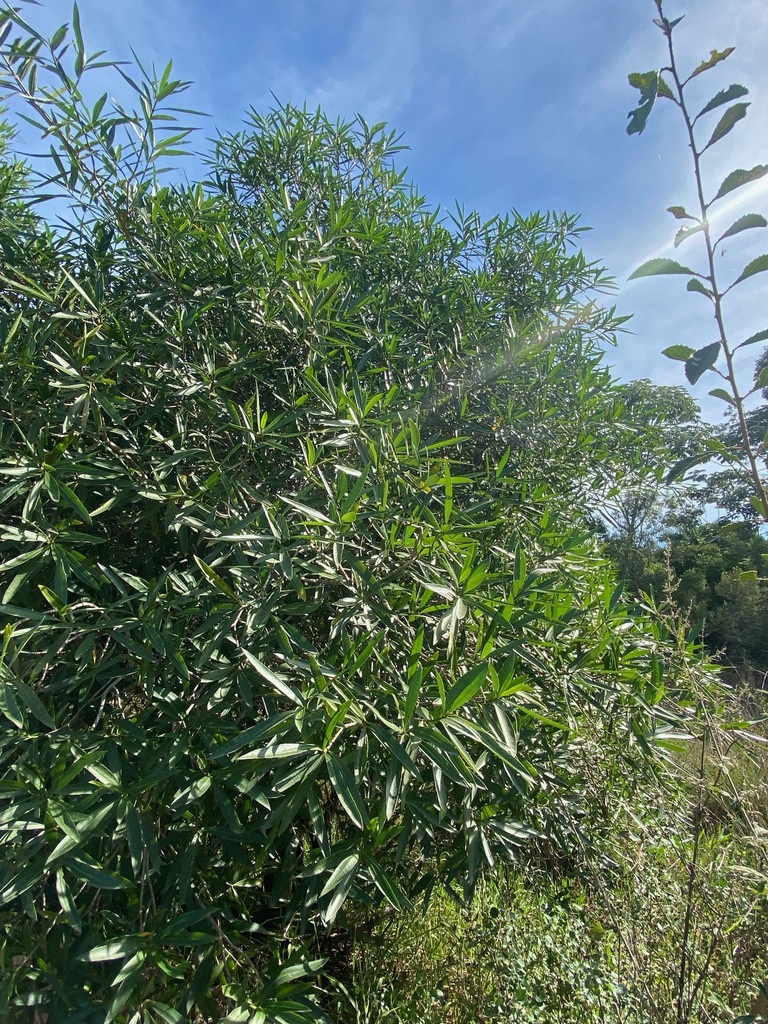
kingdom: Plantae
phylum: Tracheophyta
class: Magnoliopsida
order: Gentianales
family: Apocynaceae
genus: Tabernaemontana
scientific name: Tabernaemontana catharinensis
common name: Pinwheel-flower
